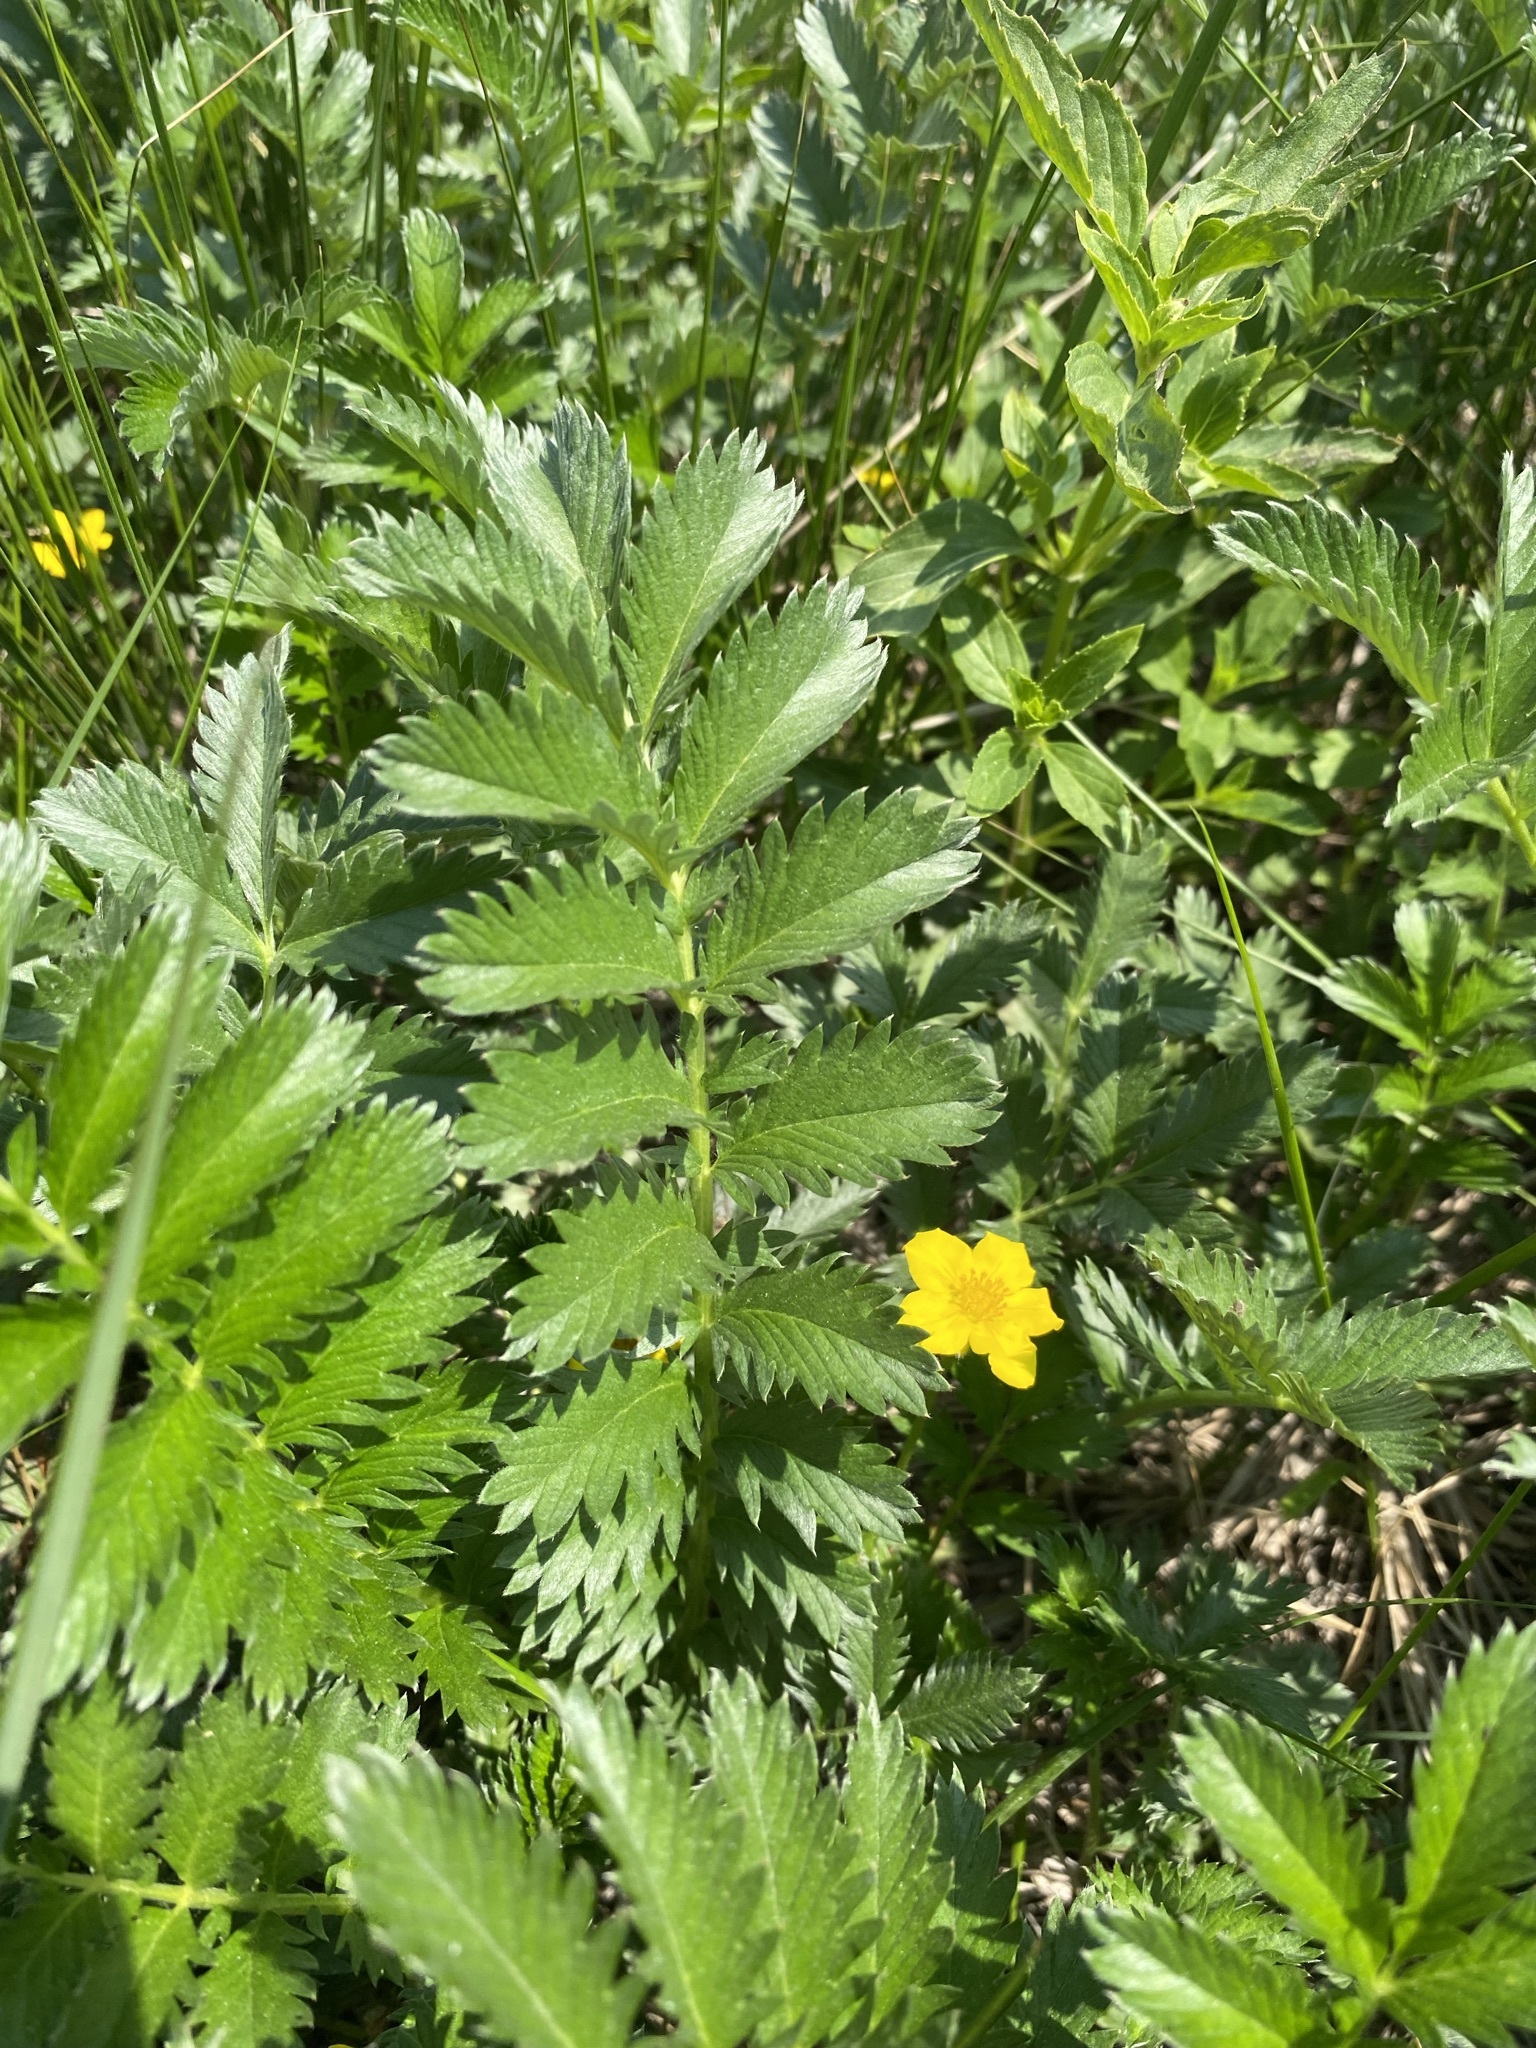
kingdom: Plantae
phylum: Tracheophyta
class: Magnoliopsida
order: Rosales
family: Rosaceae
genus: Argentina
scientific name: Argentina anserina
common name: Common silverweed
